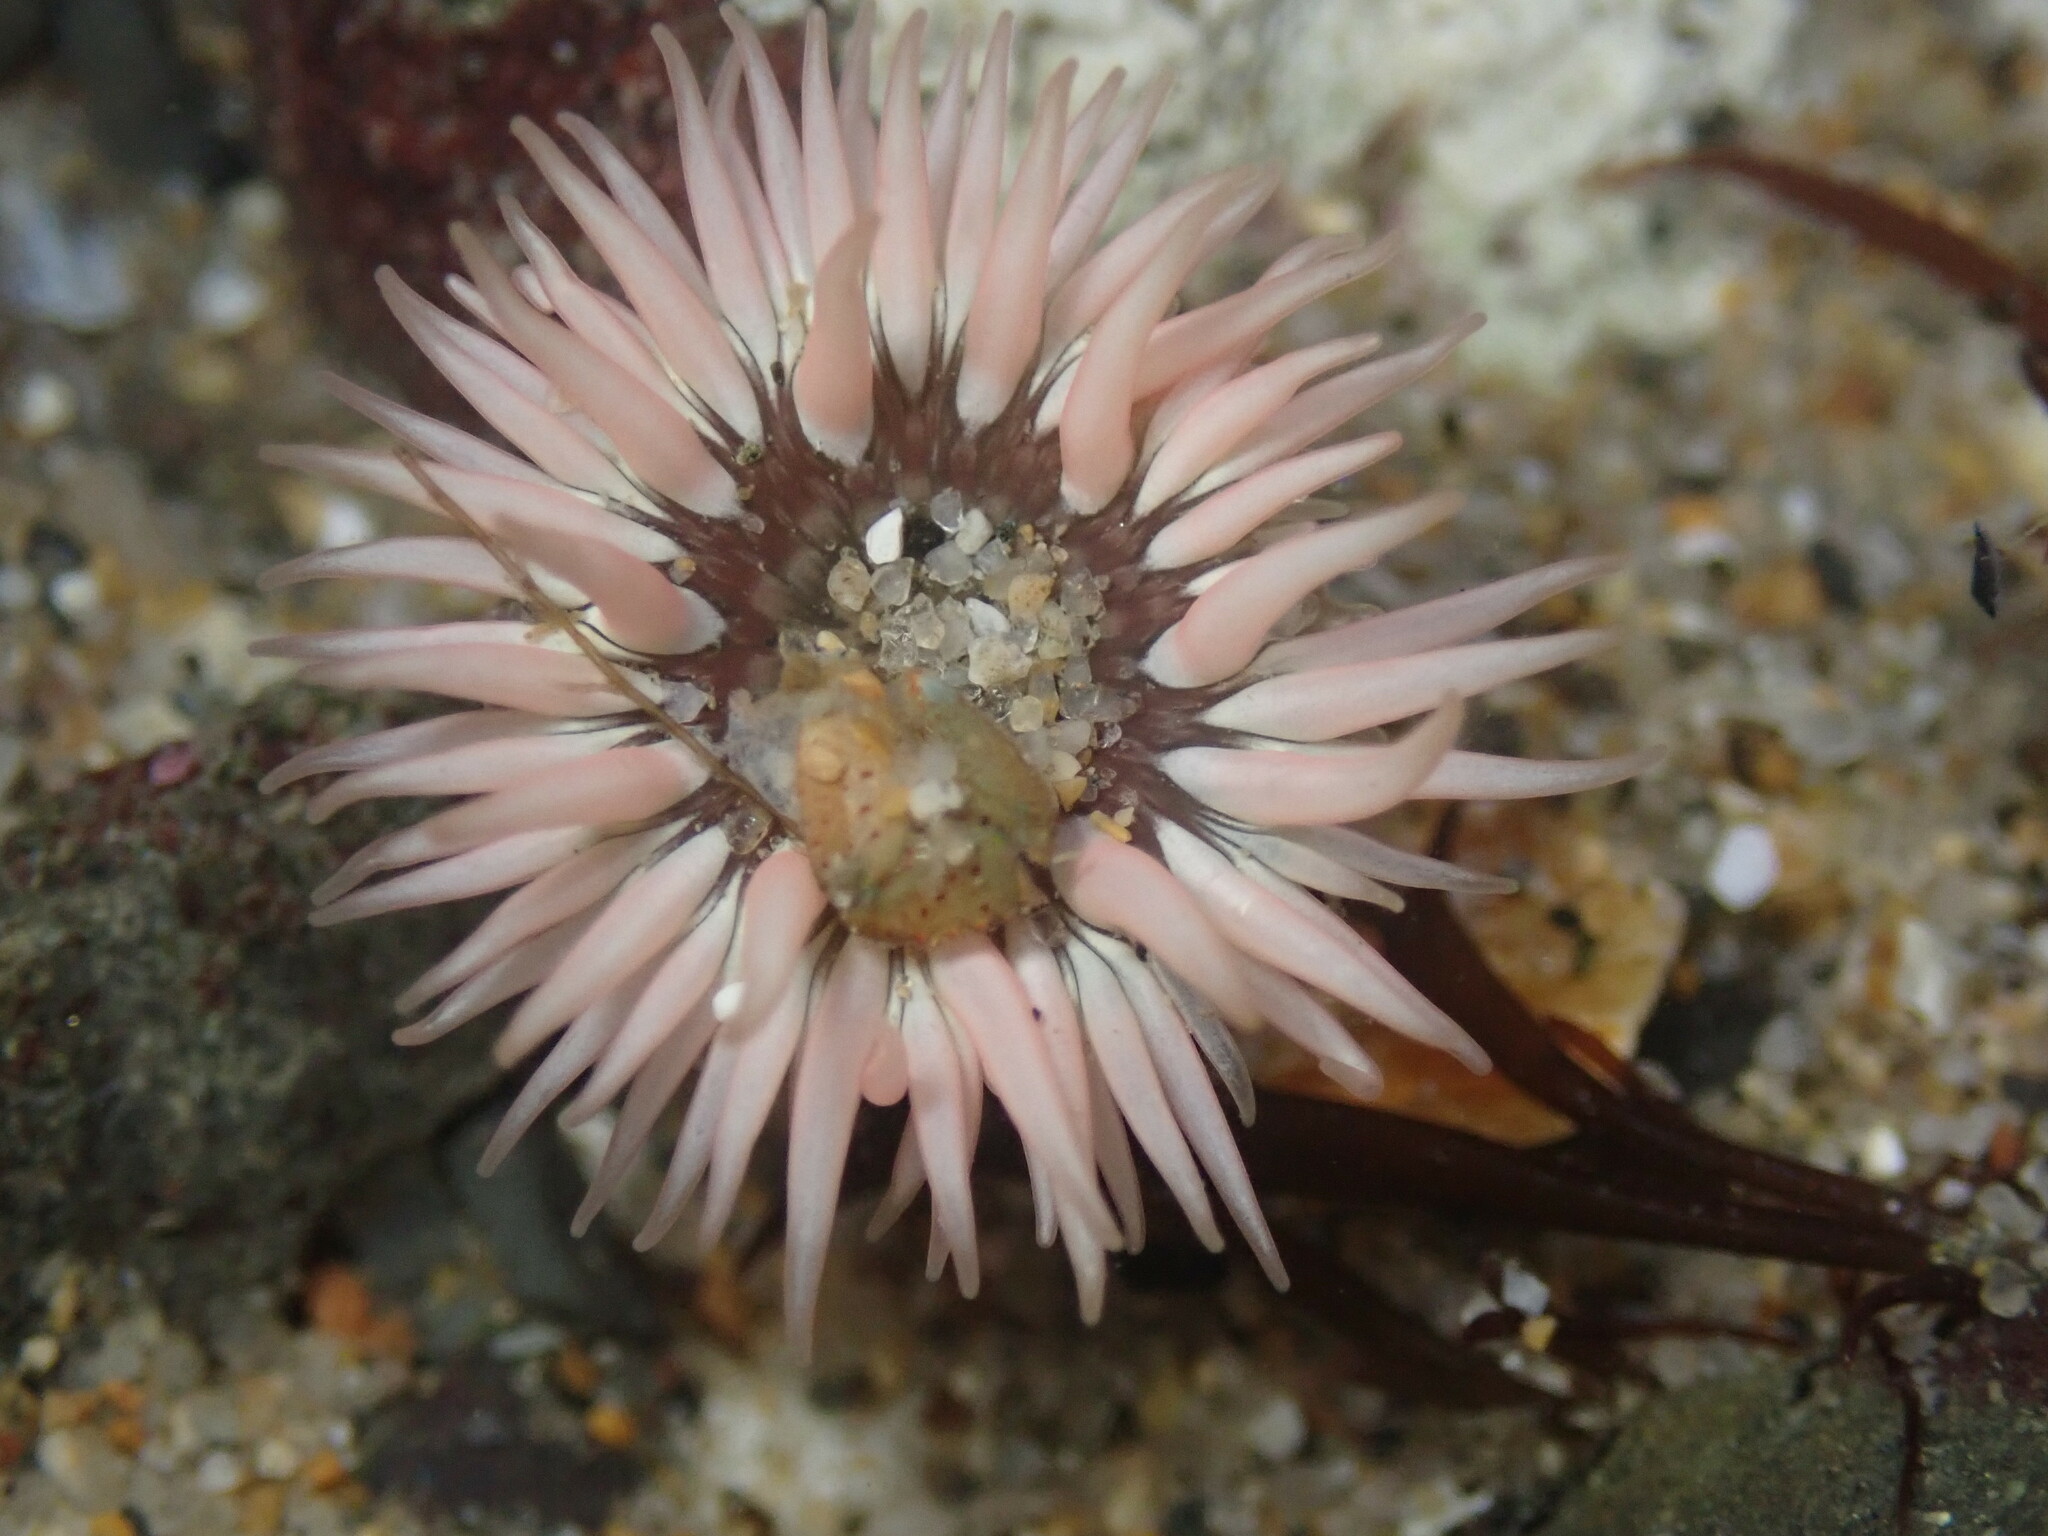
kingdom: Animalia
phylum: Cnidaria
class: Anthozoa
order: Actiniaria
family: Actiniidae
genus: Anthopleura
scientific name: Anthopleura artemisia
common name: Buried sea anemone
